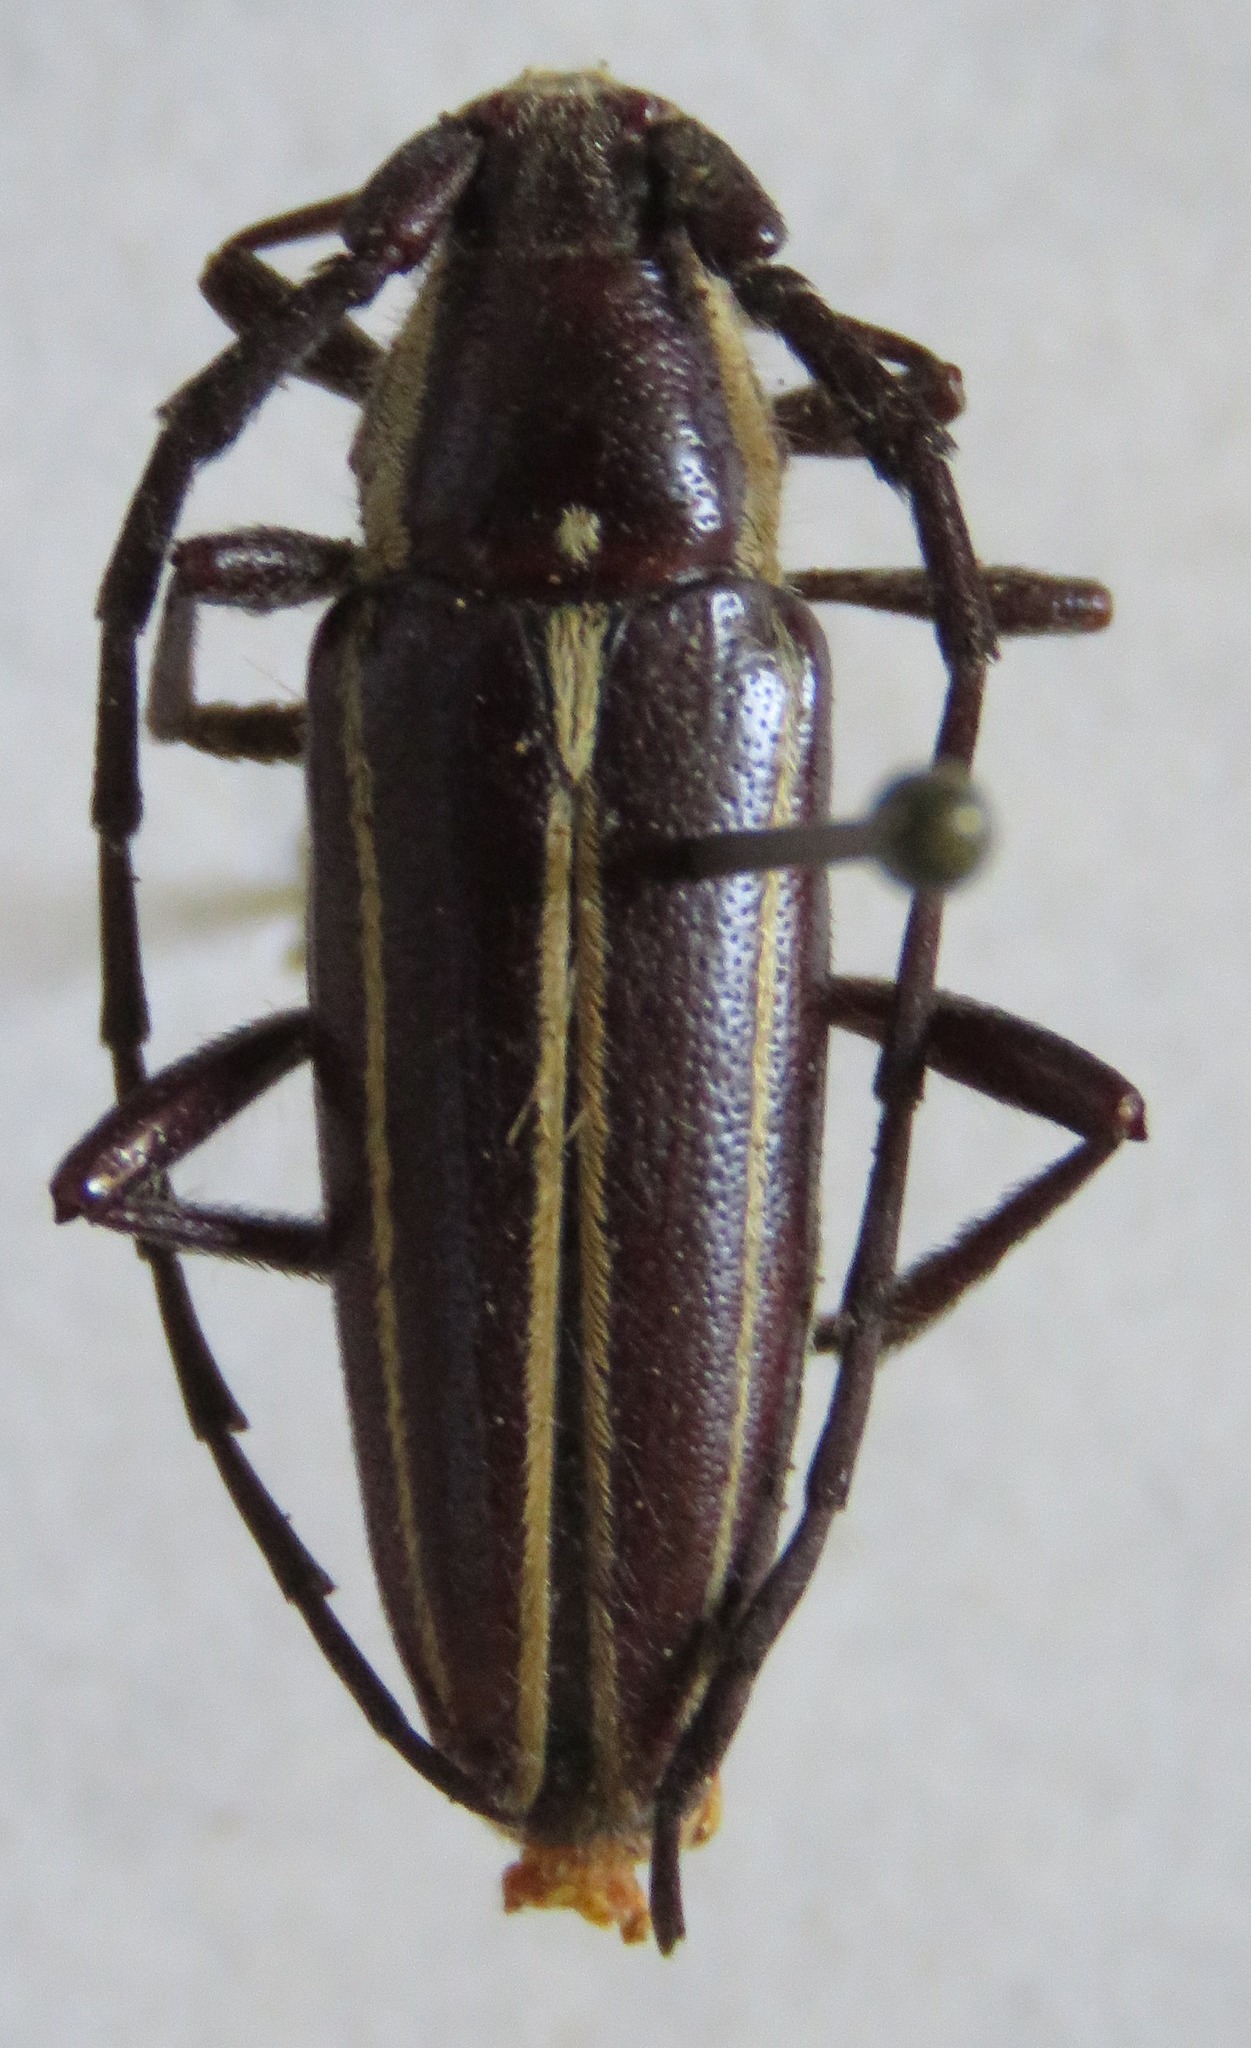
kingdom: Animalia
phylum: Arthropoda
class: Insecta
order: Coleoptera
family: Cerambycidae
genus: Sphaenothecus
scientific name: Sphaenothecus facetus
